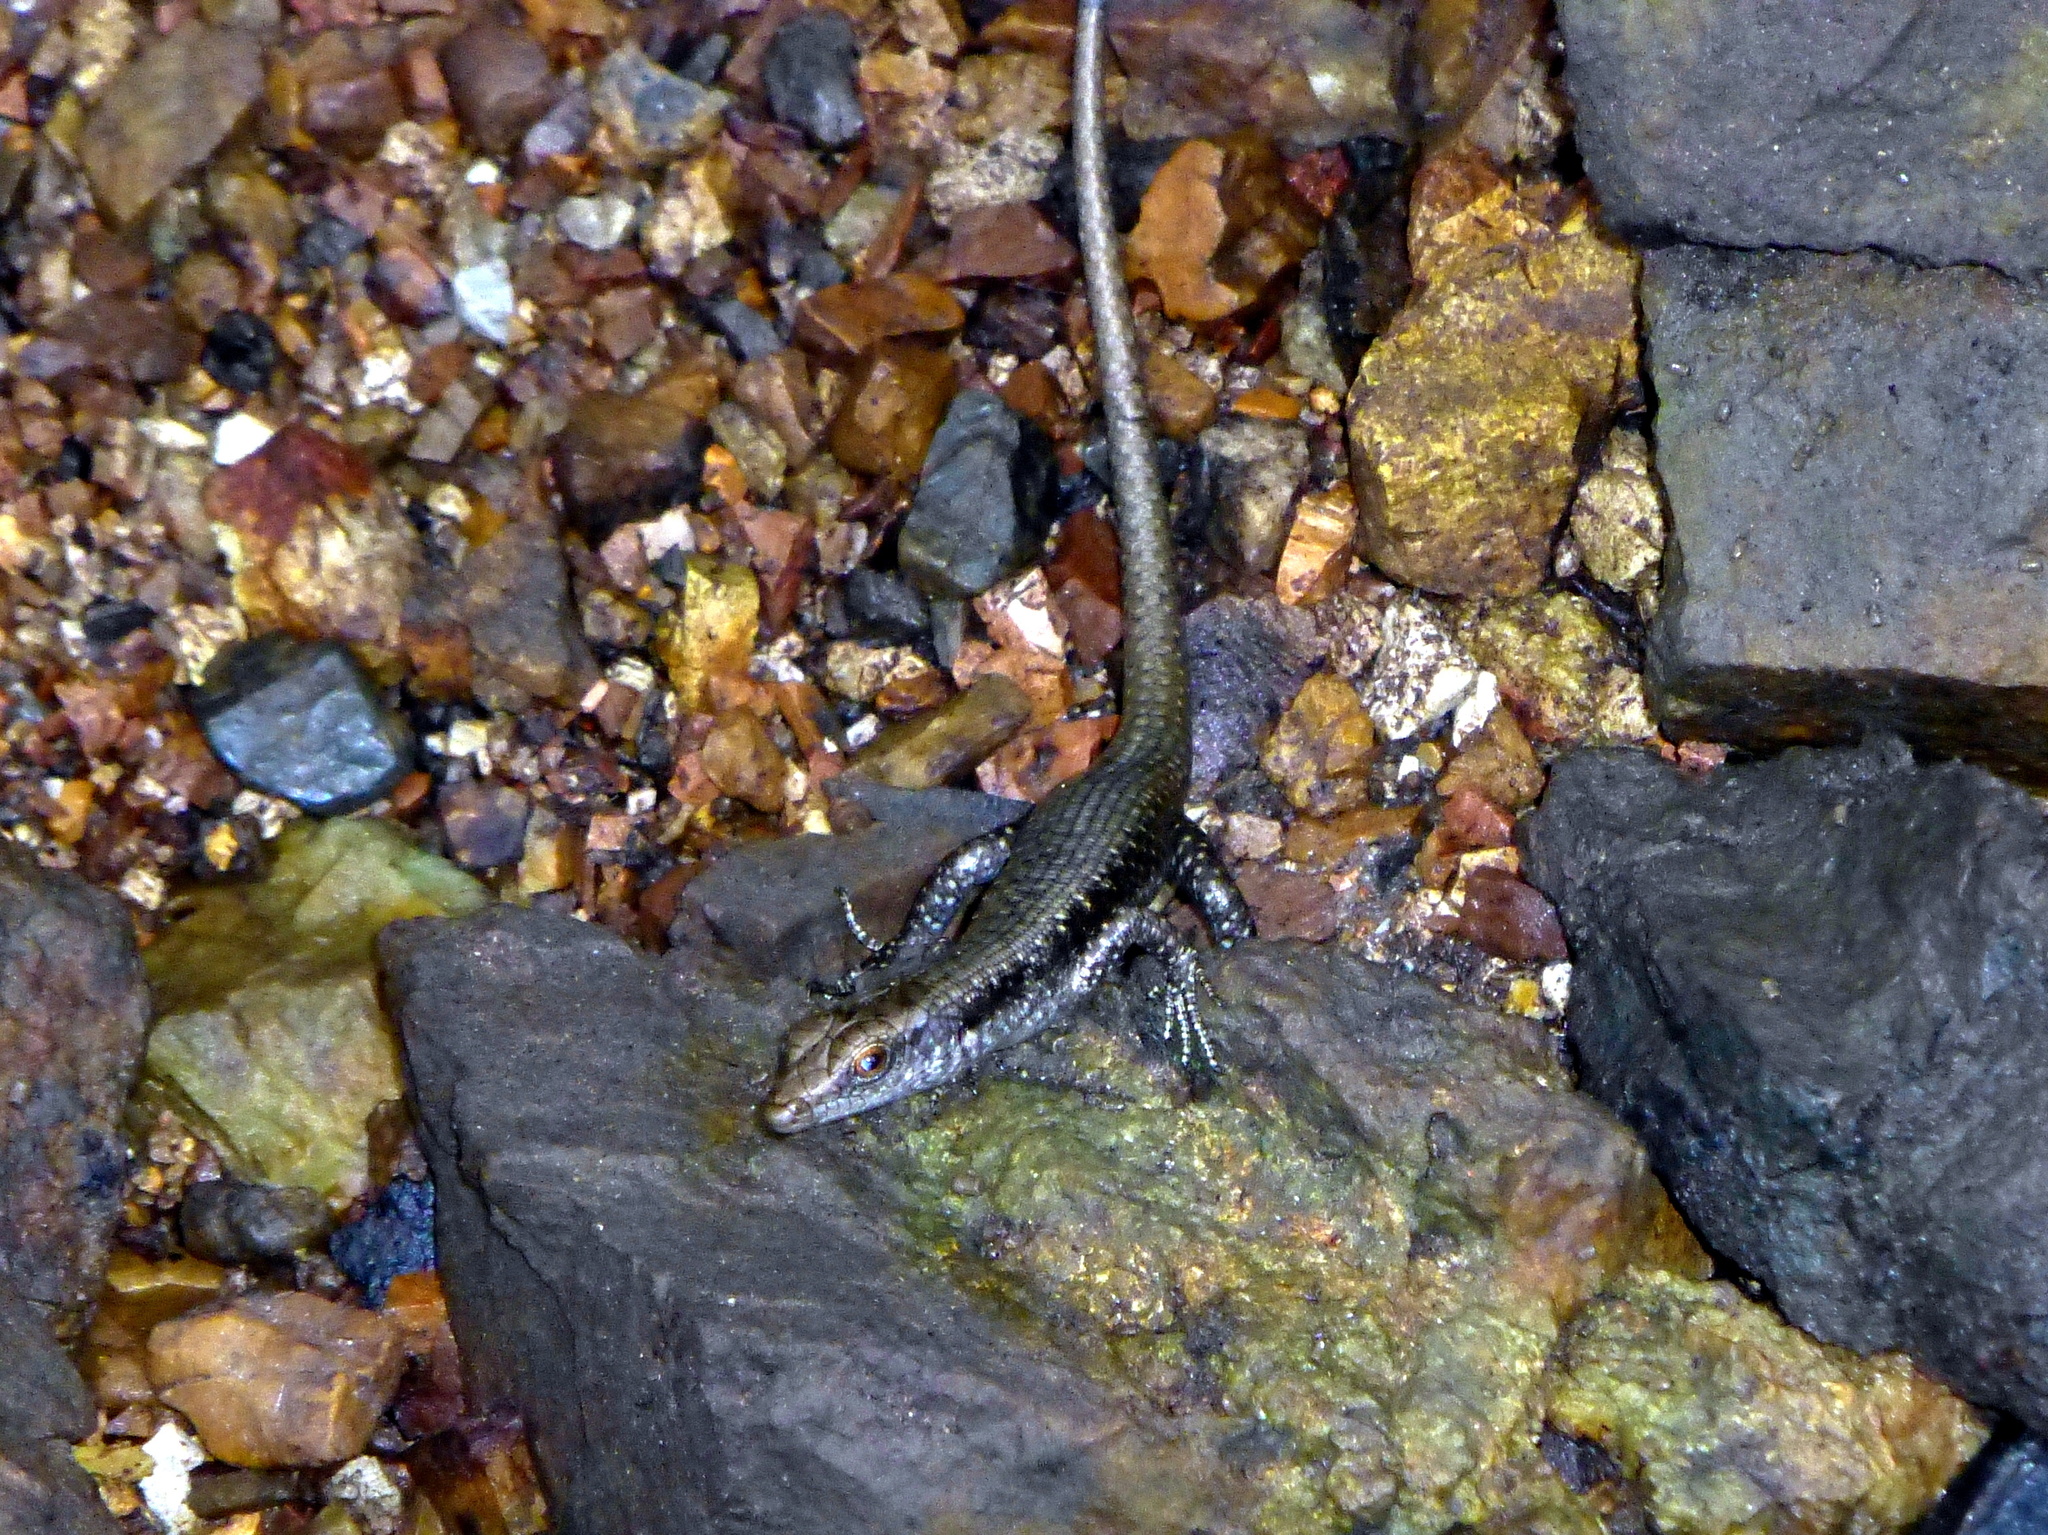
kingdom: Animalia
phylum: Chordata
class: Squamata
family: Scincidae
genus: Emoia
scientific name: Emoia atrocostata
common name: Littoral skink
